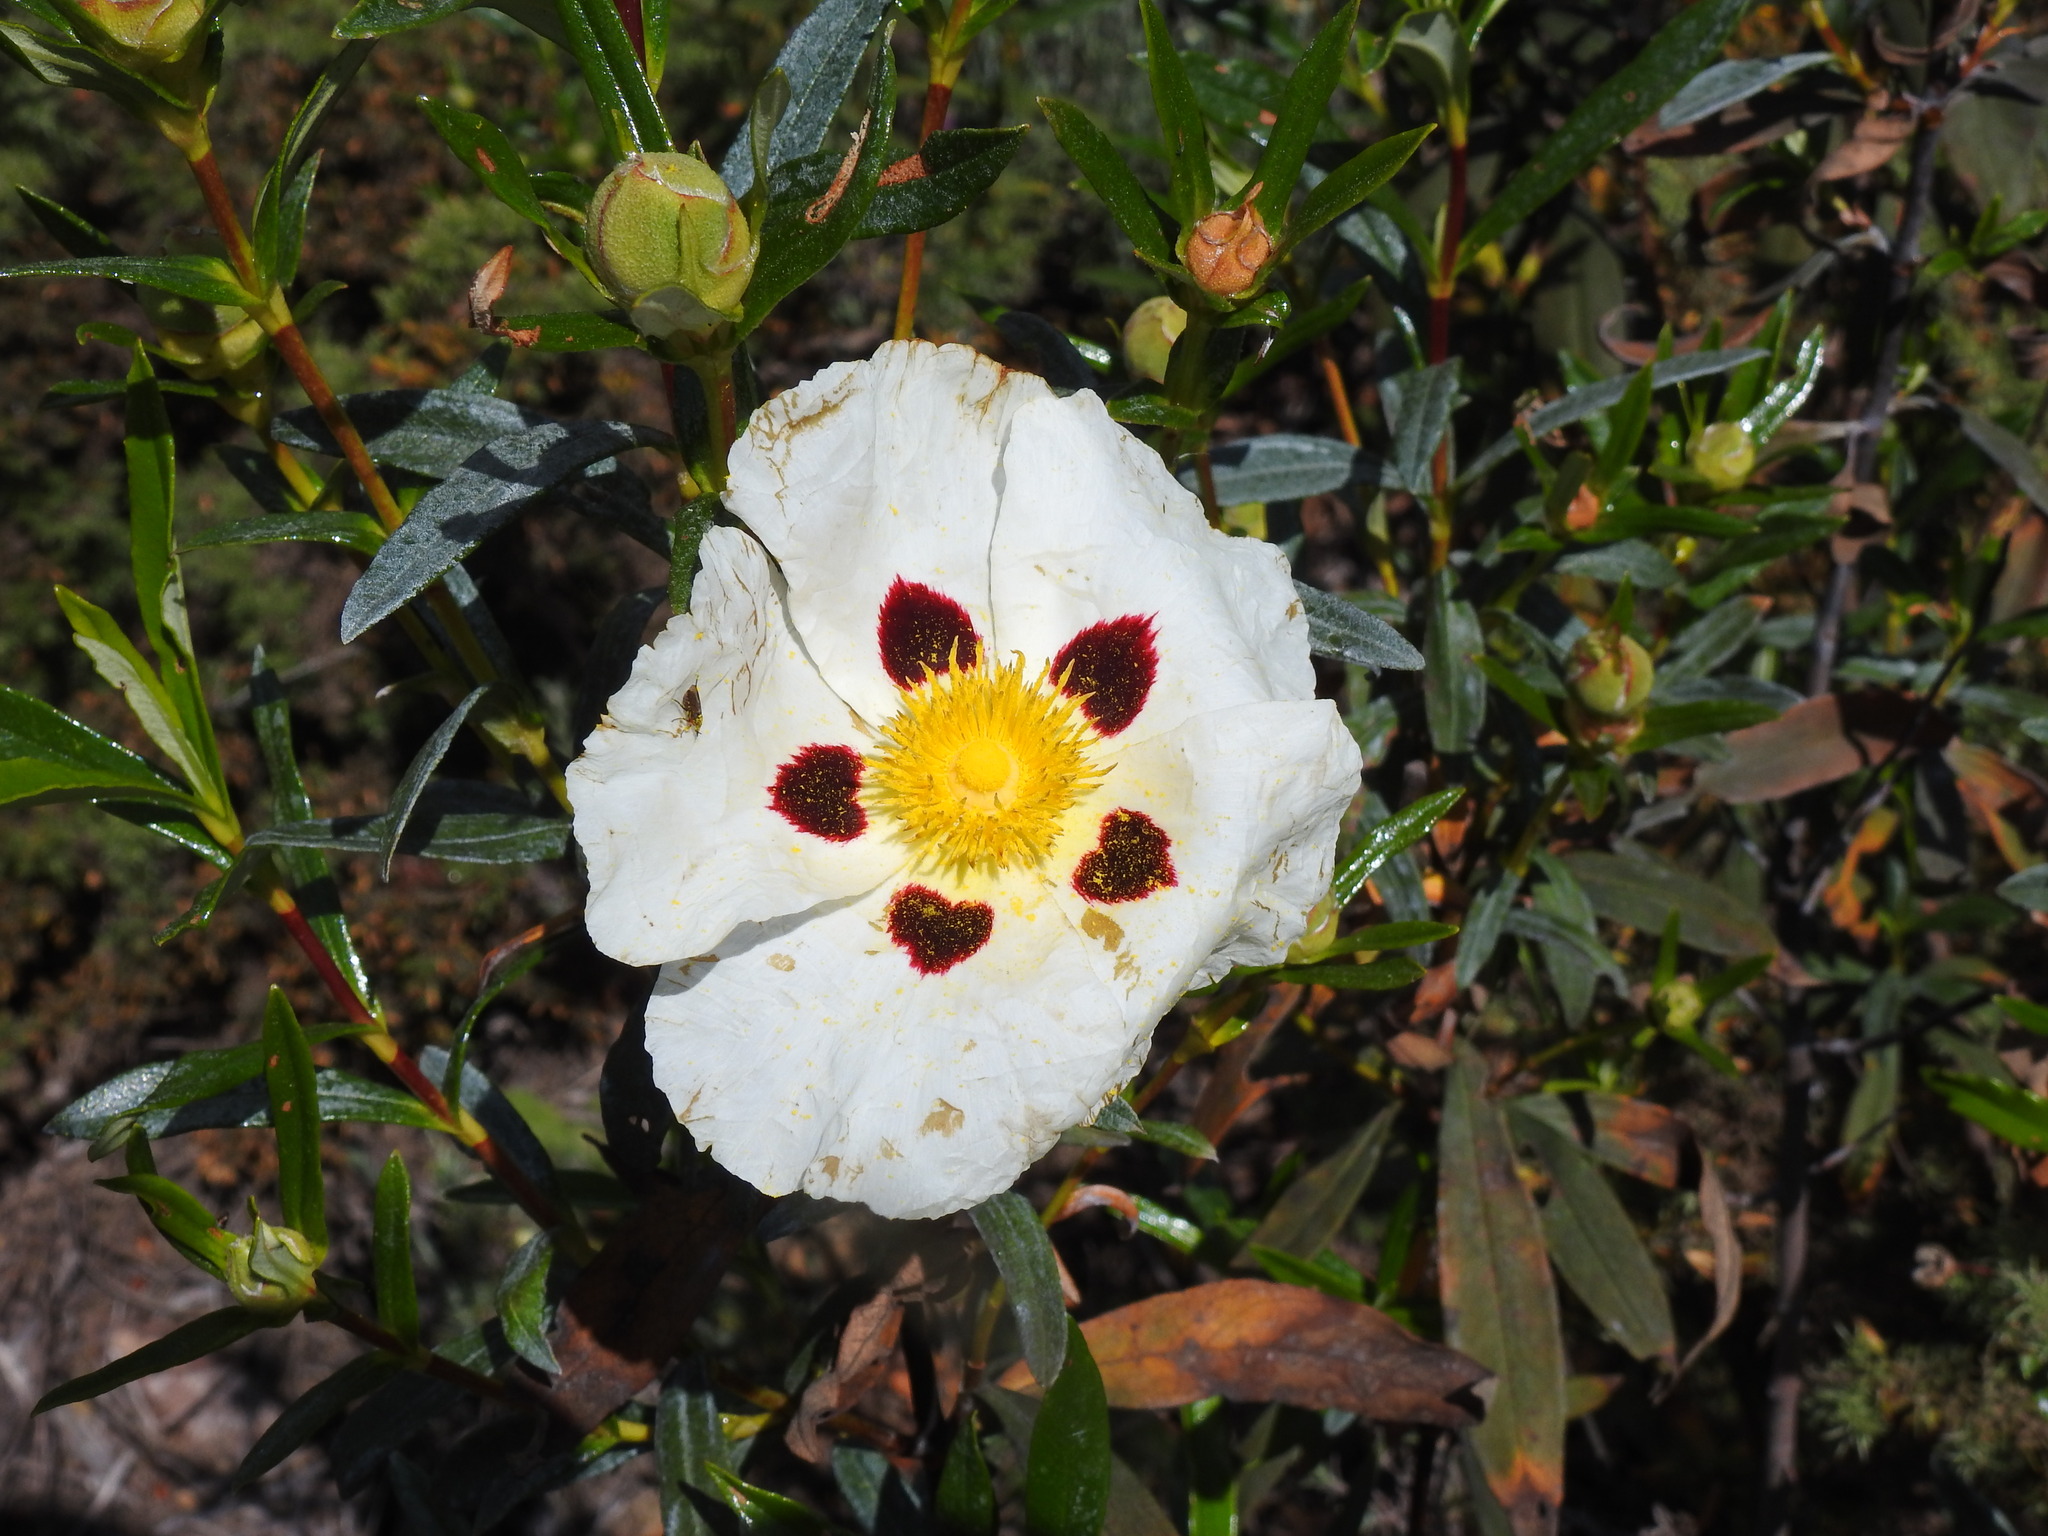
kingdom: Plantae
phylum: Tracheophyta
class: Magnoliopsida
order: Malvales
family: Cistaceae
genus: Cistus
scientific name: Cistus ladanifer
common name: Common gum cistus
